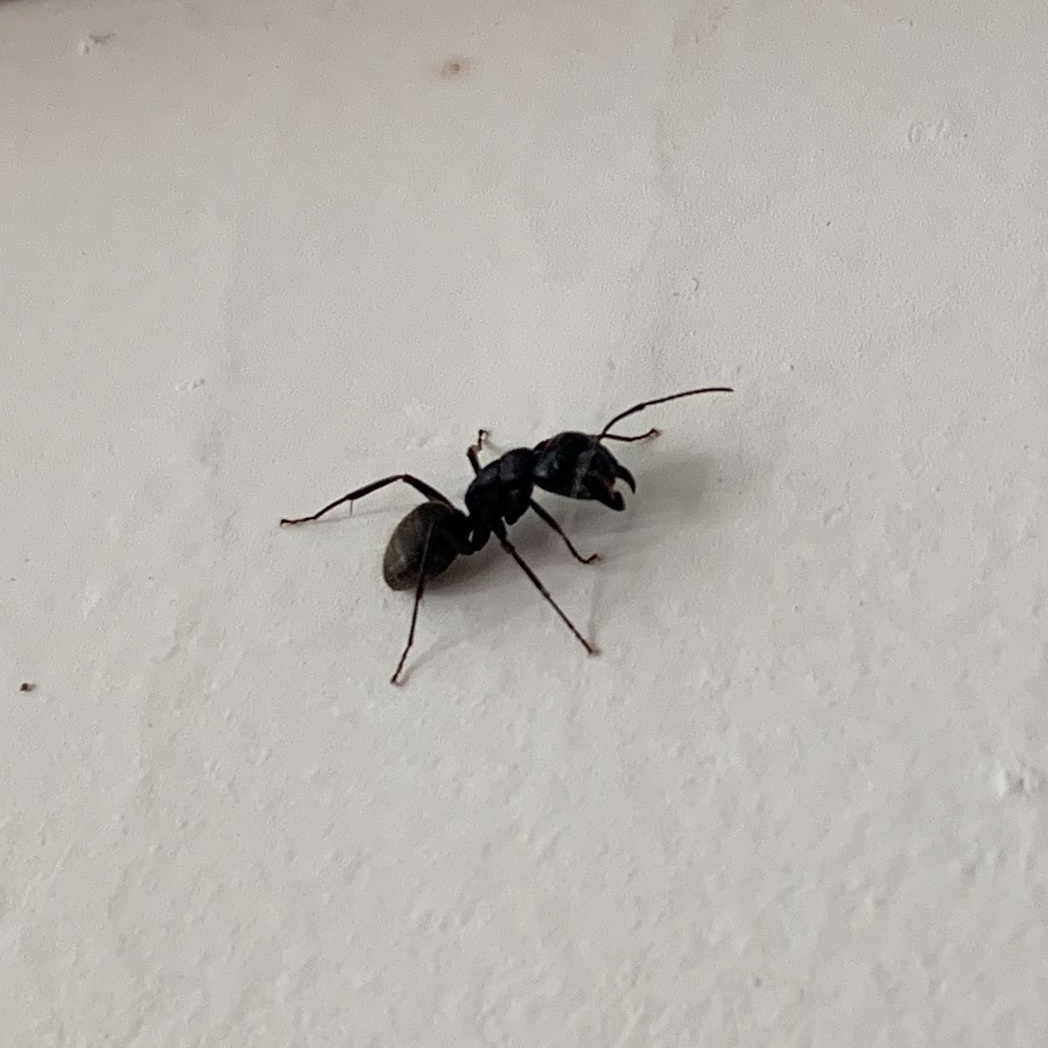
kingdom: Animalia
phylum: Arthropoda
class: Insecta
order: Hymenoptera
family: Formicidae
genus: Camponotus
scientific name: Camponotus pennsylvanicus
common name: Black carpenter ant
